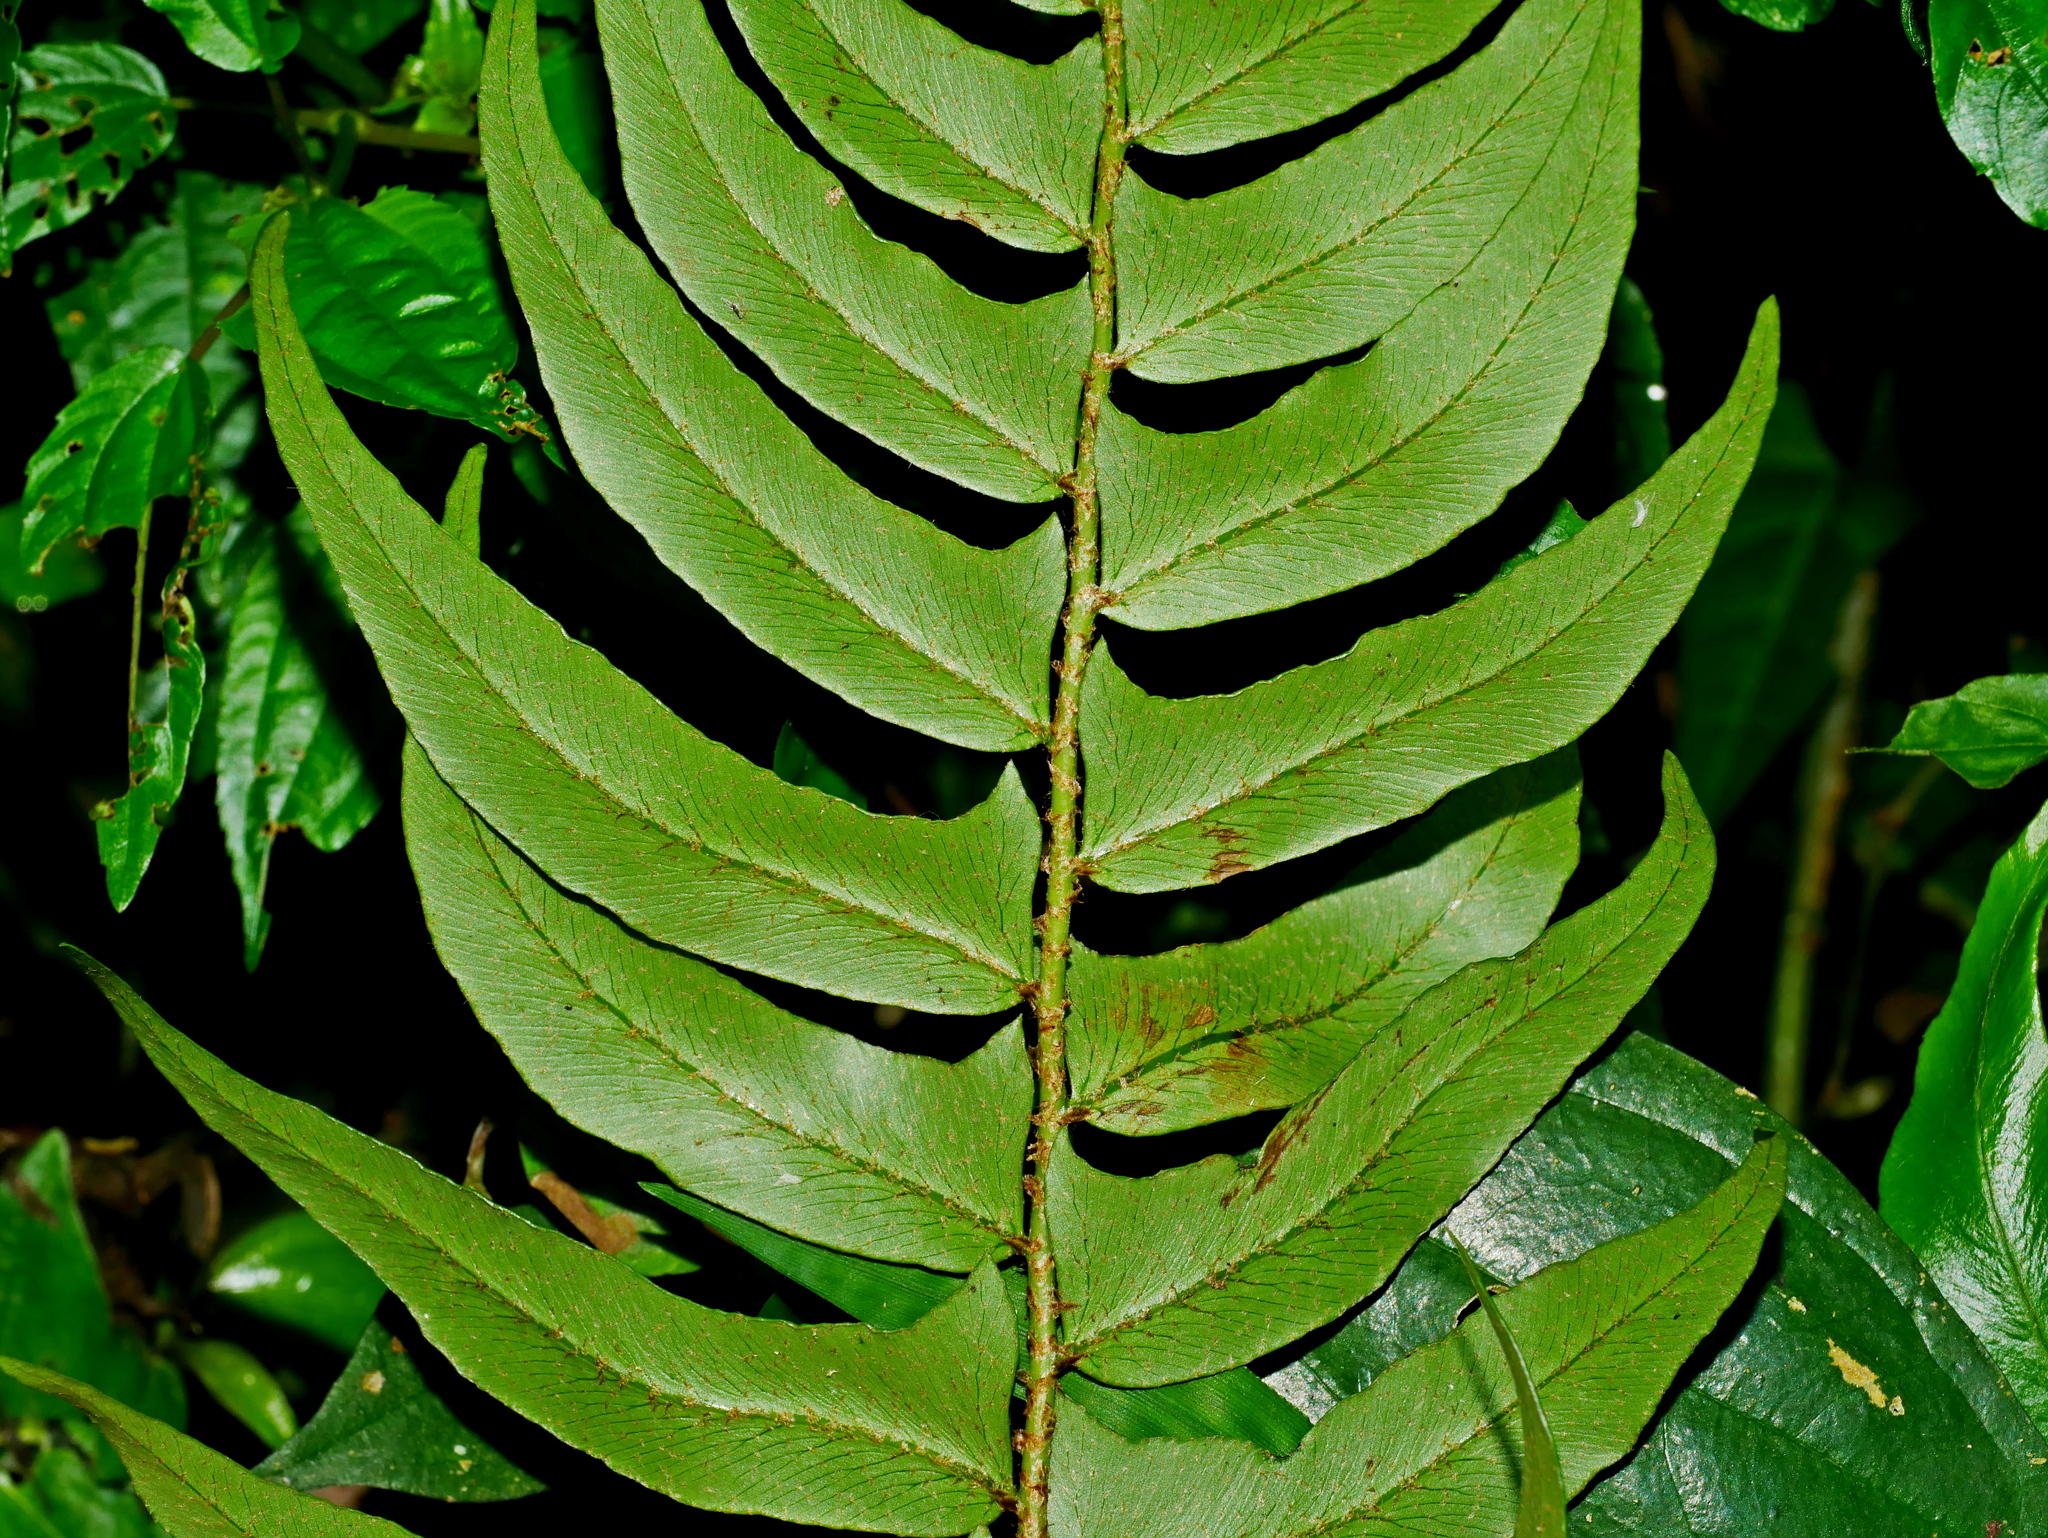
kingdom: Plantae
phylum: Tracheophyta
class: Polypodiopsida
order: Polypodiales
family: Dryopteridaceae
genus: Polystichum
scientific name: Polystichum lepidocaulon
